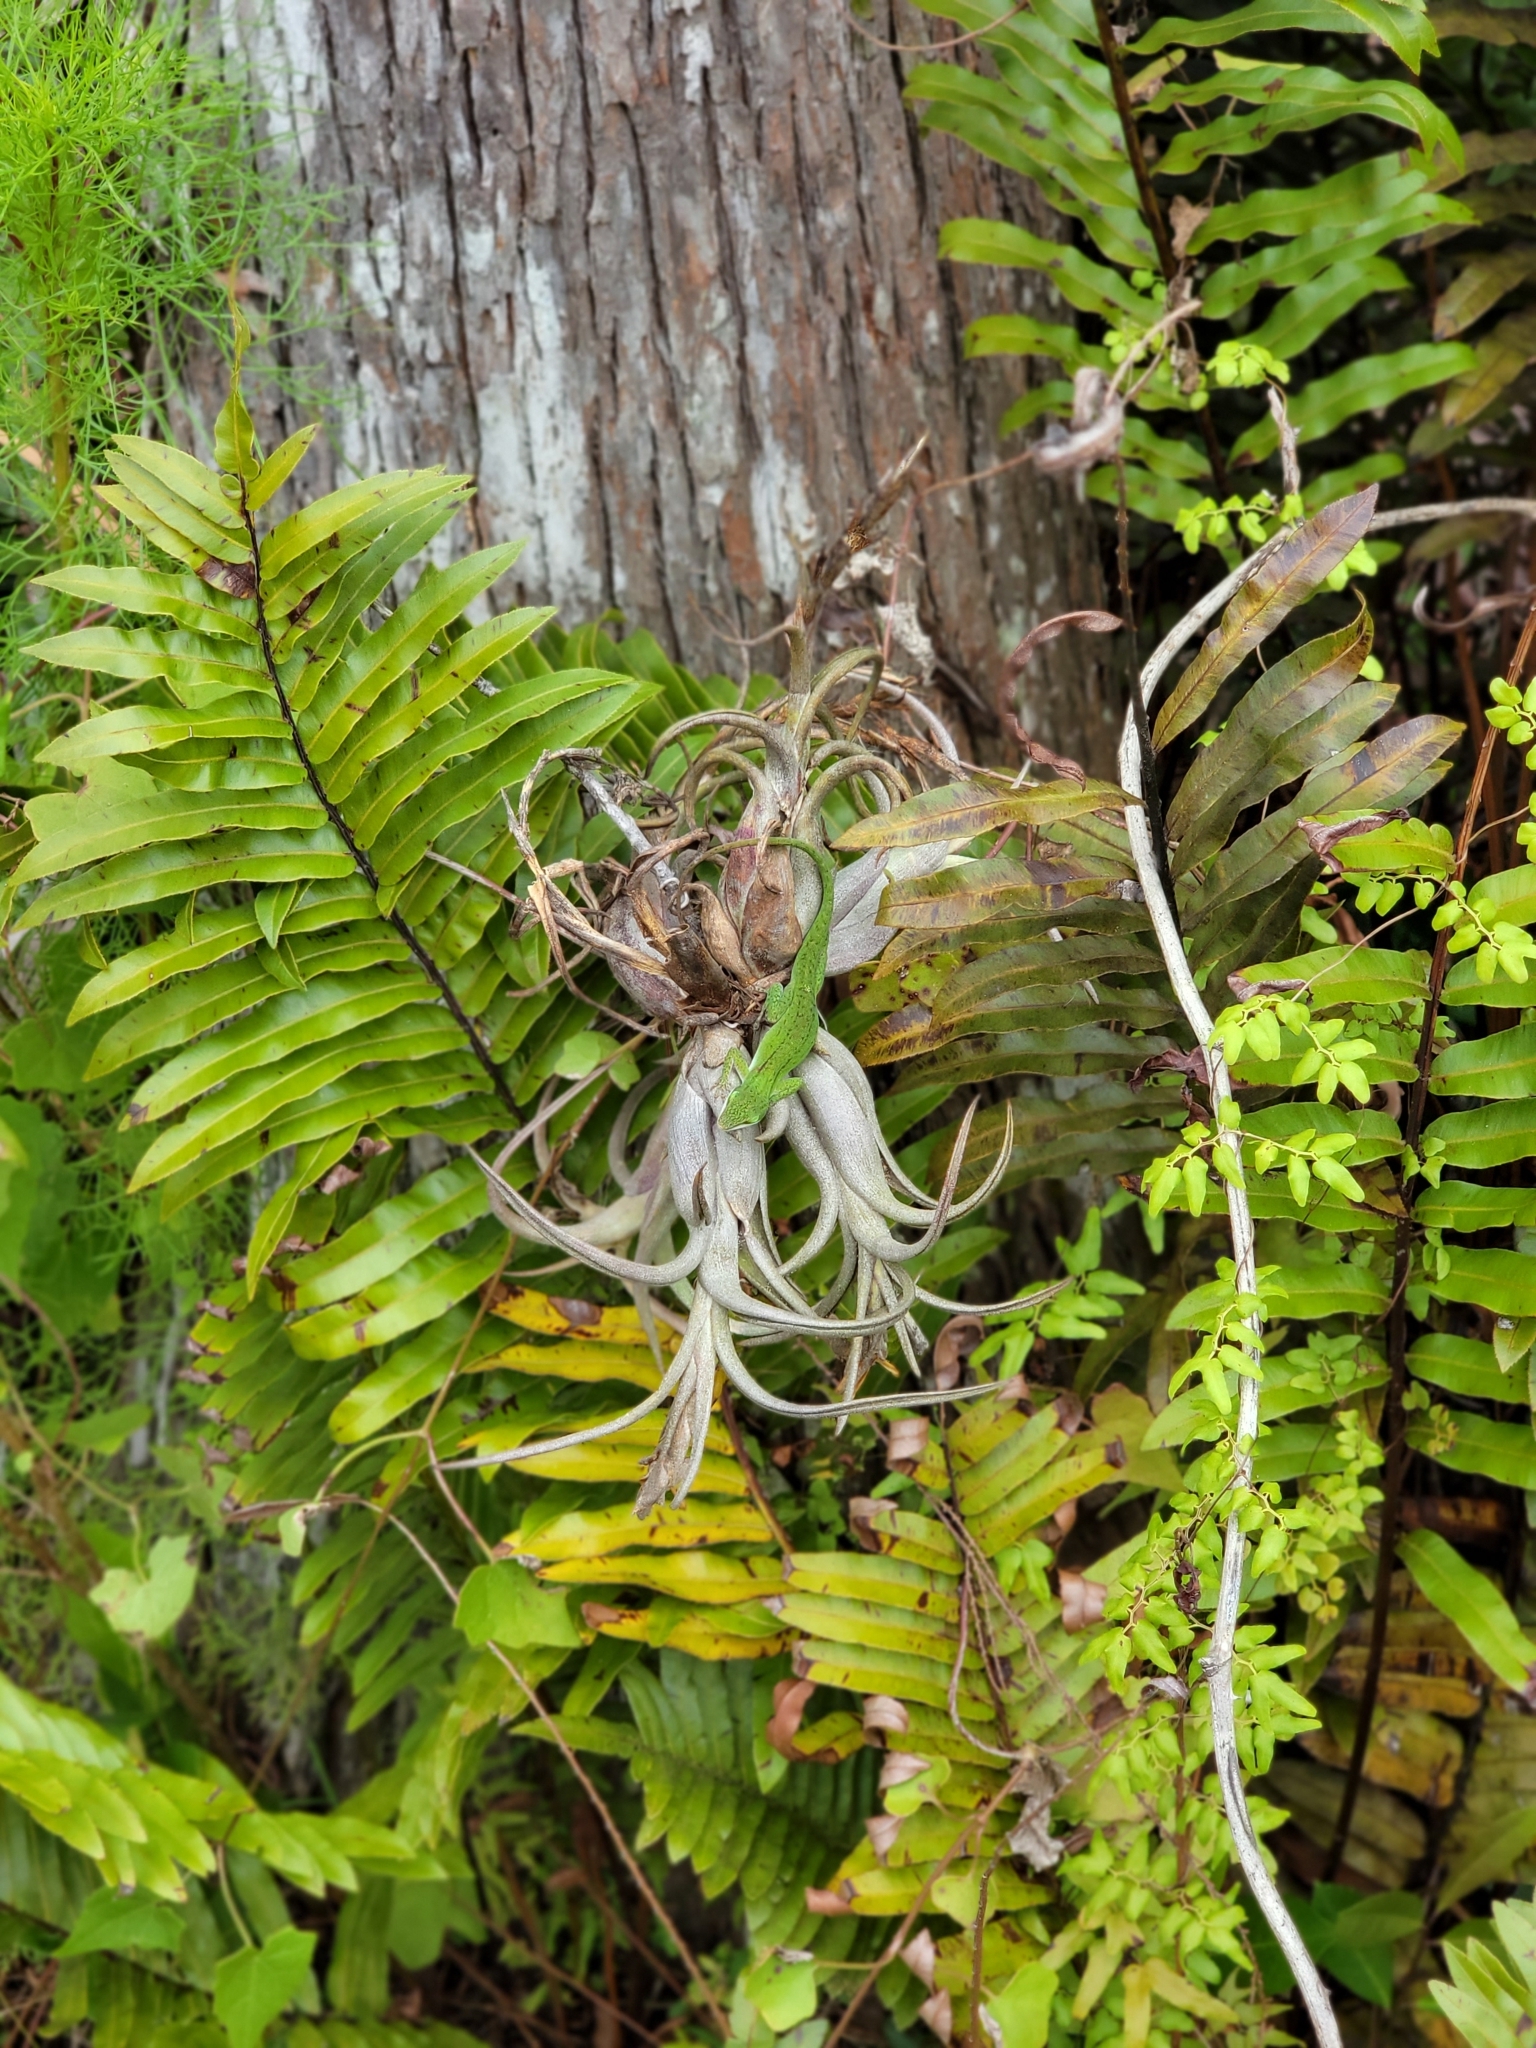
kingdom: Animalia
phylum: Chordata
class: Squamata
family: Dactyloidae
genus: Anolis
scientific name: Anolis carolinensis
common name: Green anole
